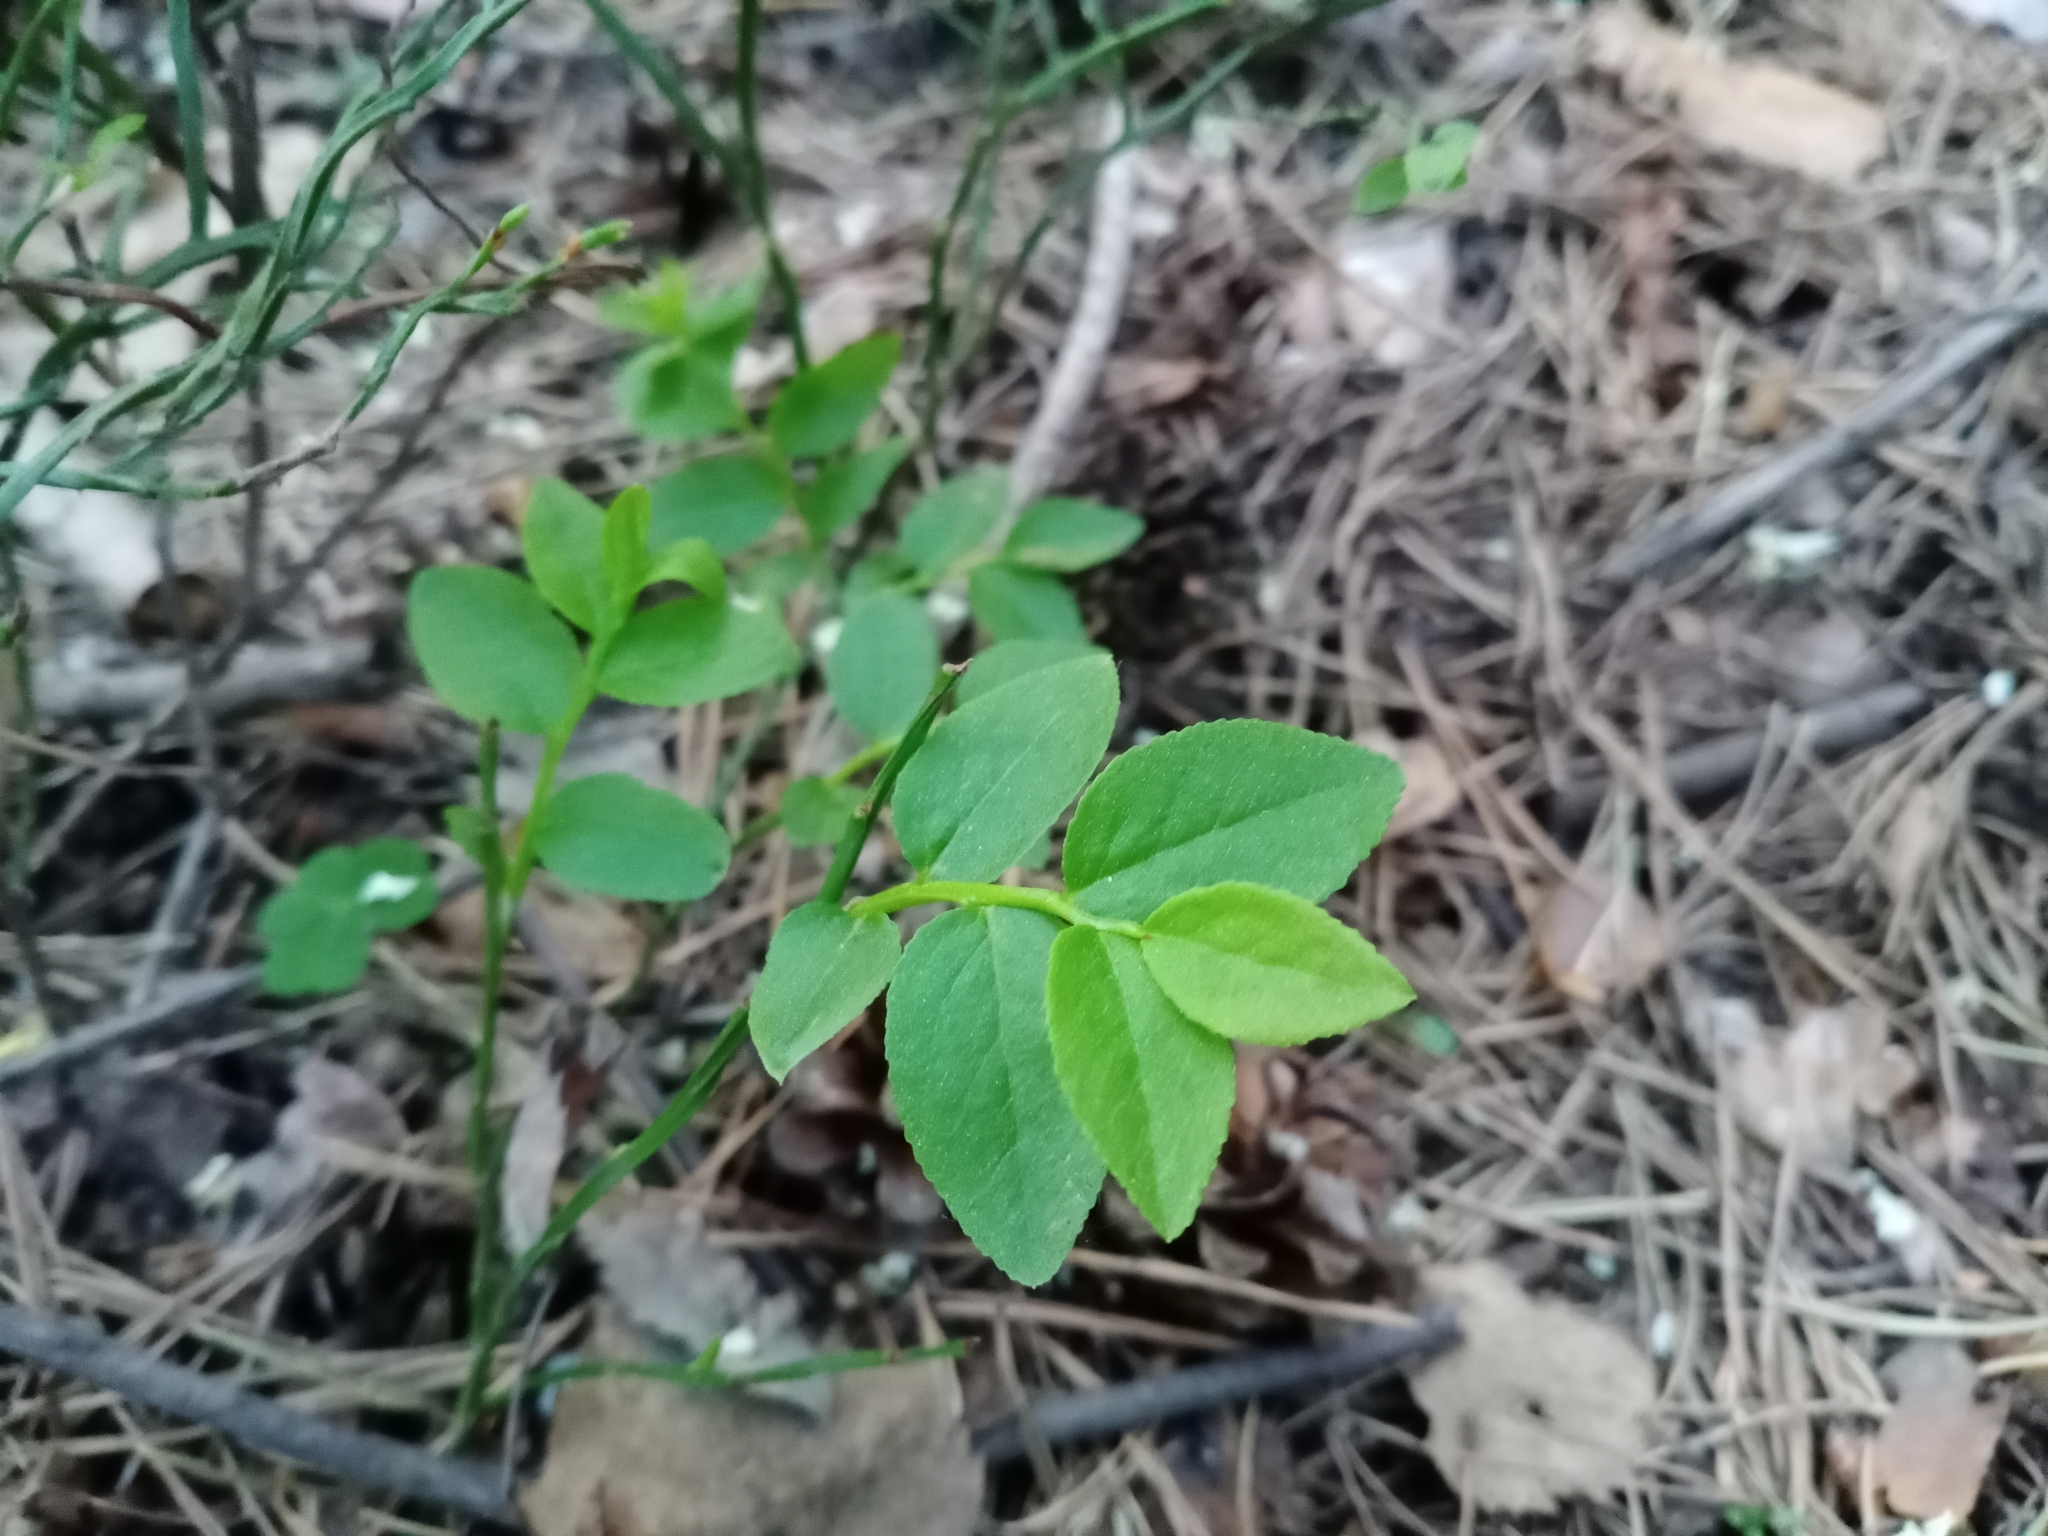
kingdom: Plantae
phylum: Tracheophyta
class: Magnoliopsida
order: Ericales
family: Ericaceae
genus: Vaccinium
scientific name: Vaccinium myrtillus
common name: Bilberry
